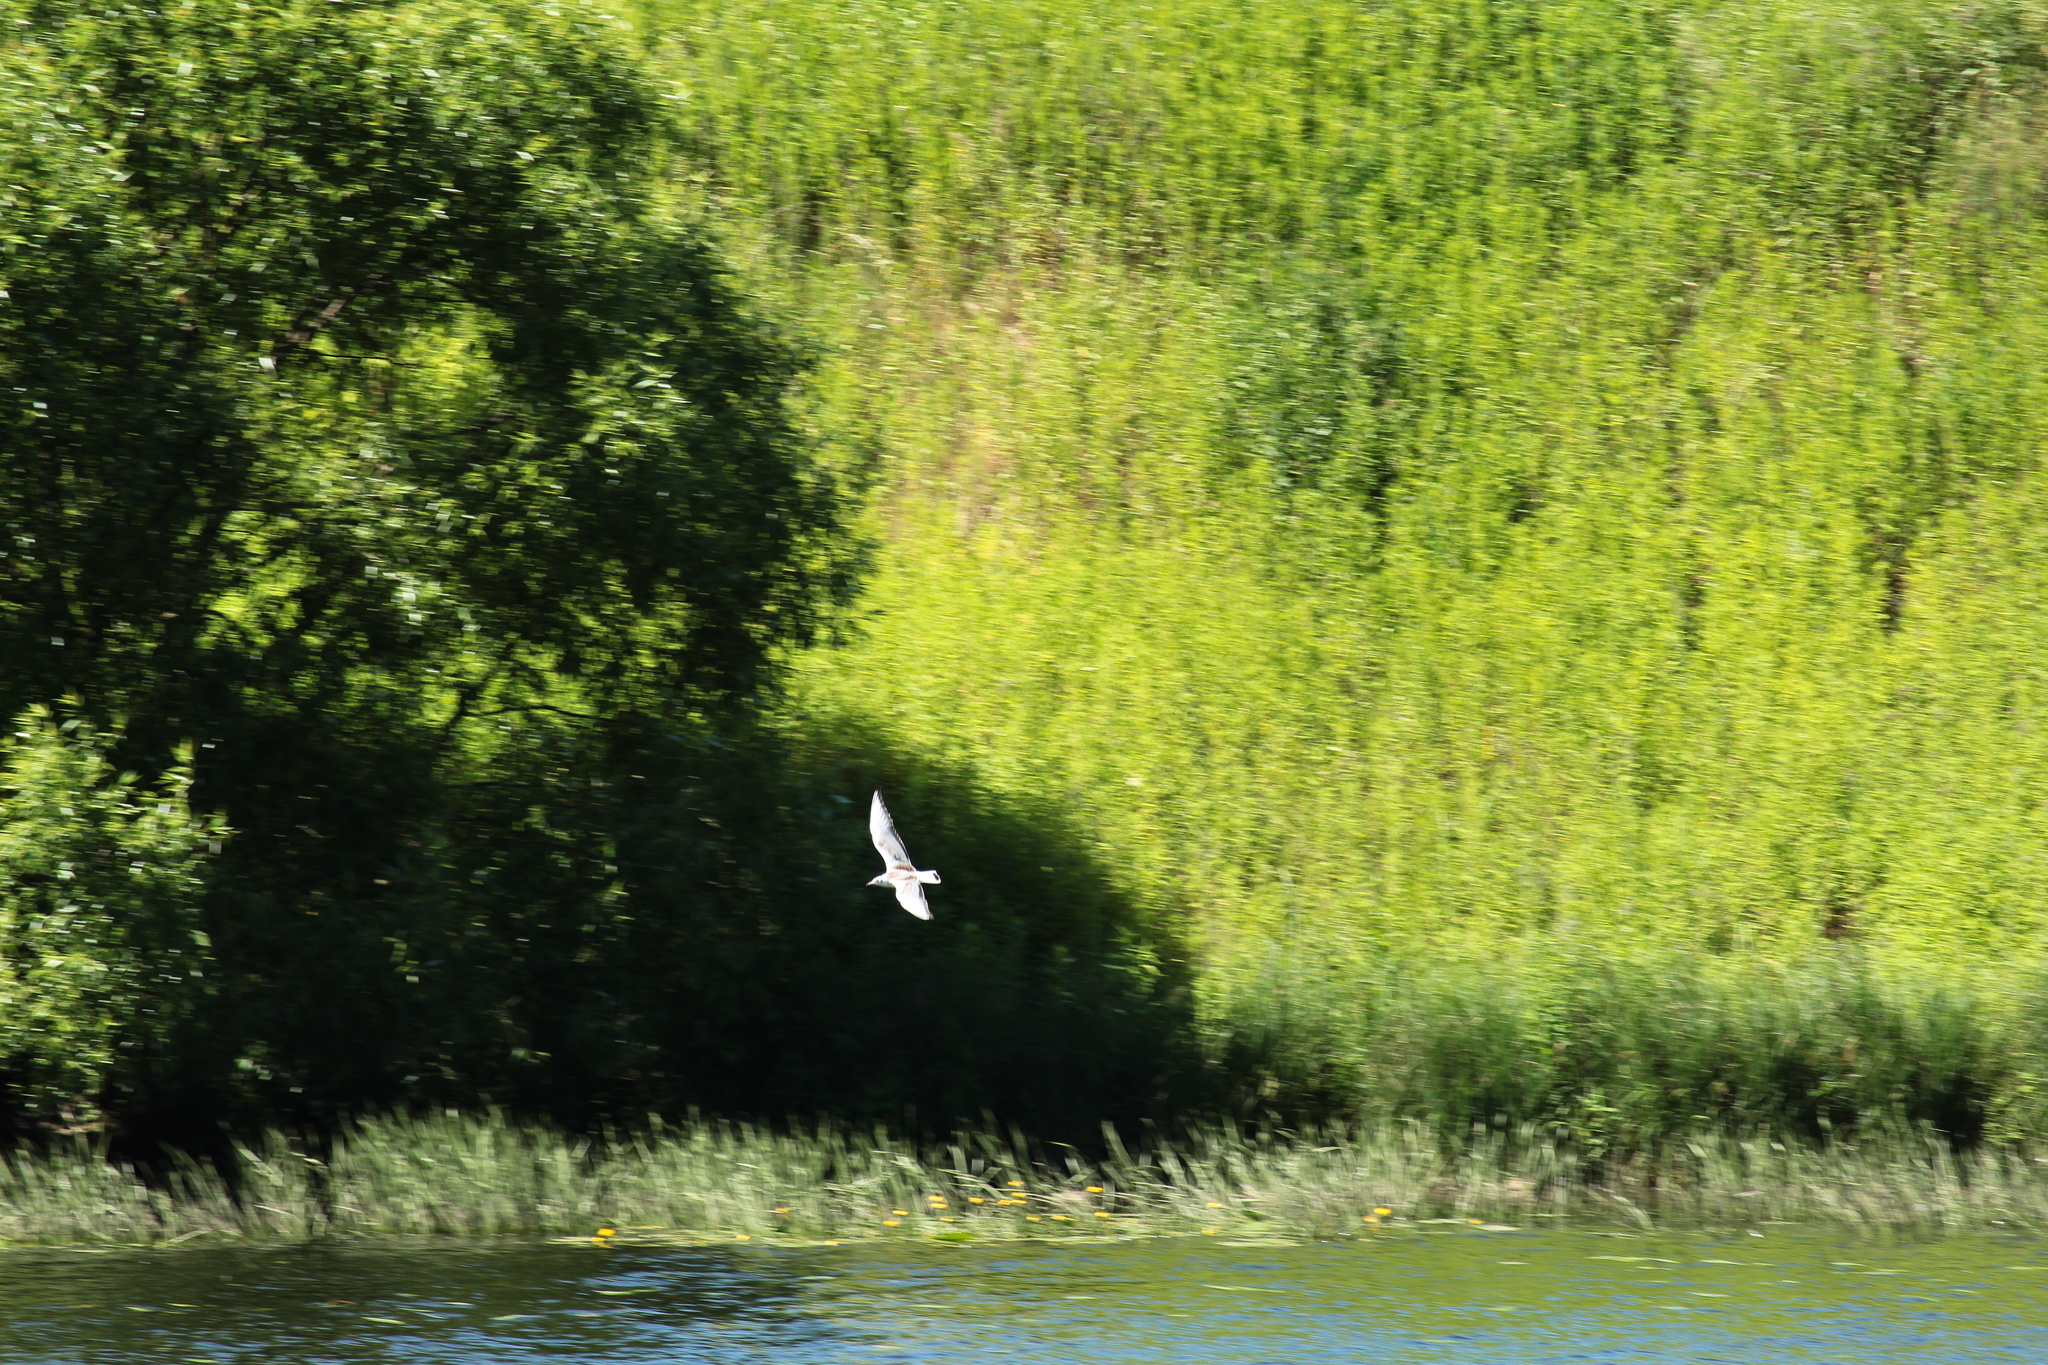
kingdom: Animalia
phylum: Chordata
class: Aves
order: Charadriiformes
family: Laridae
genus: Chroicocephalus
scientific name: Chroicocephalus ridibundus
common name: Black-headed gull
